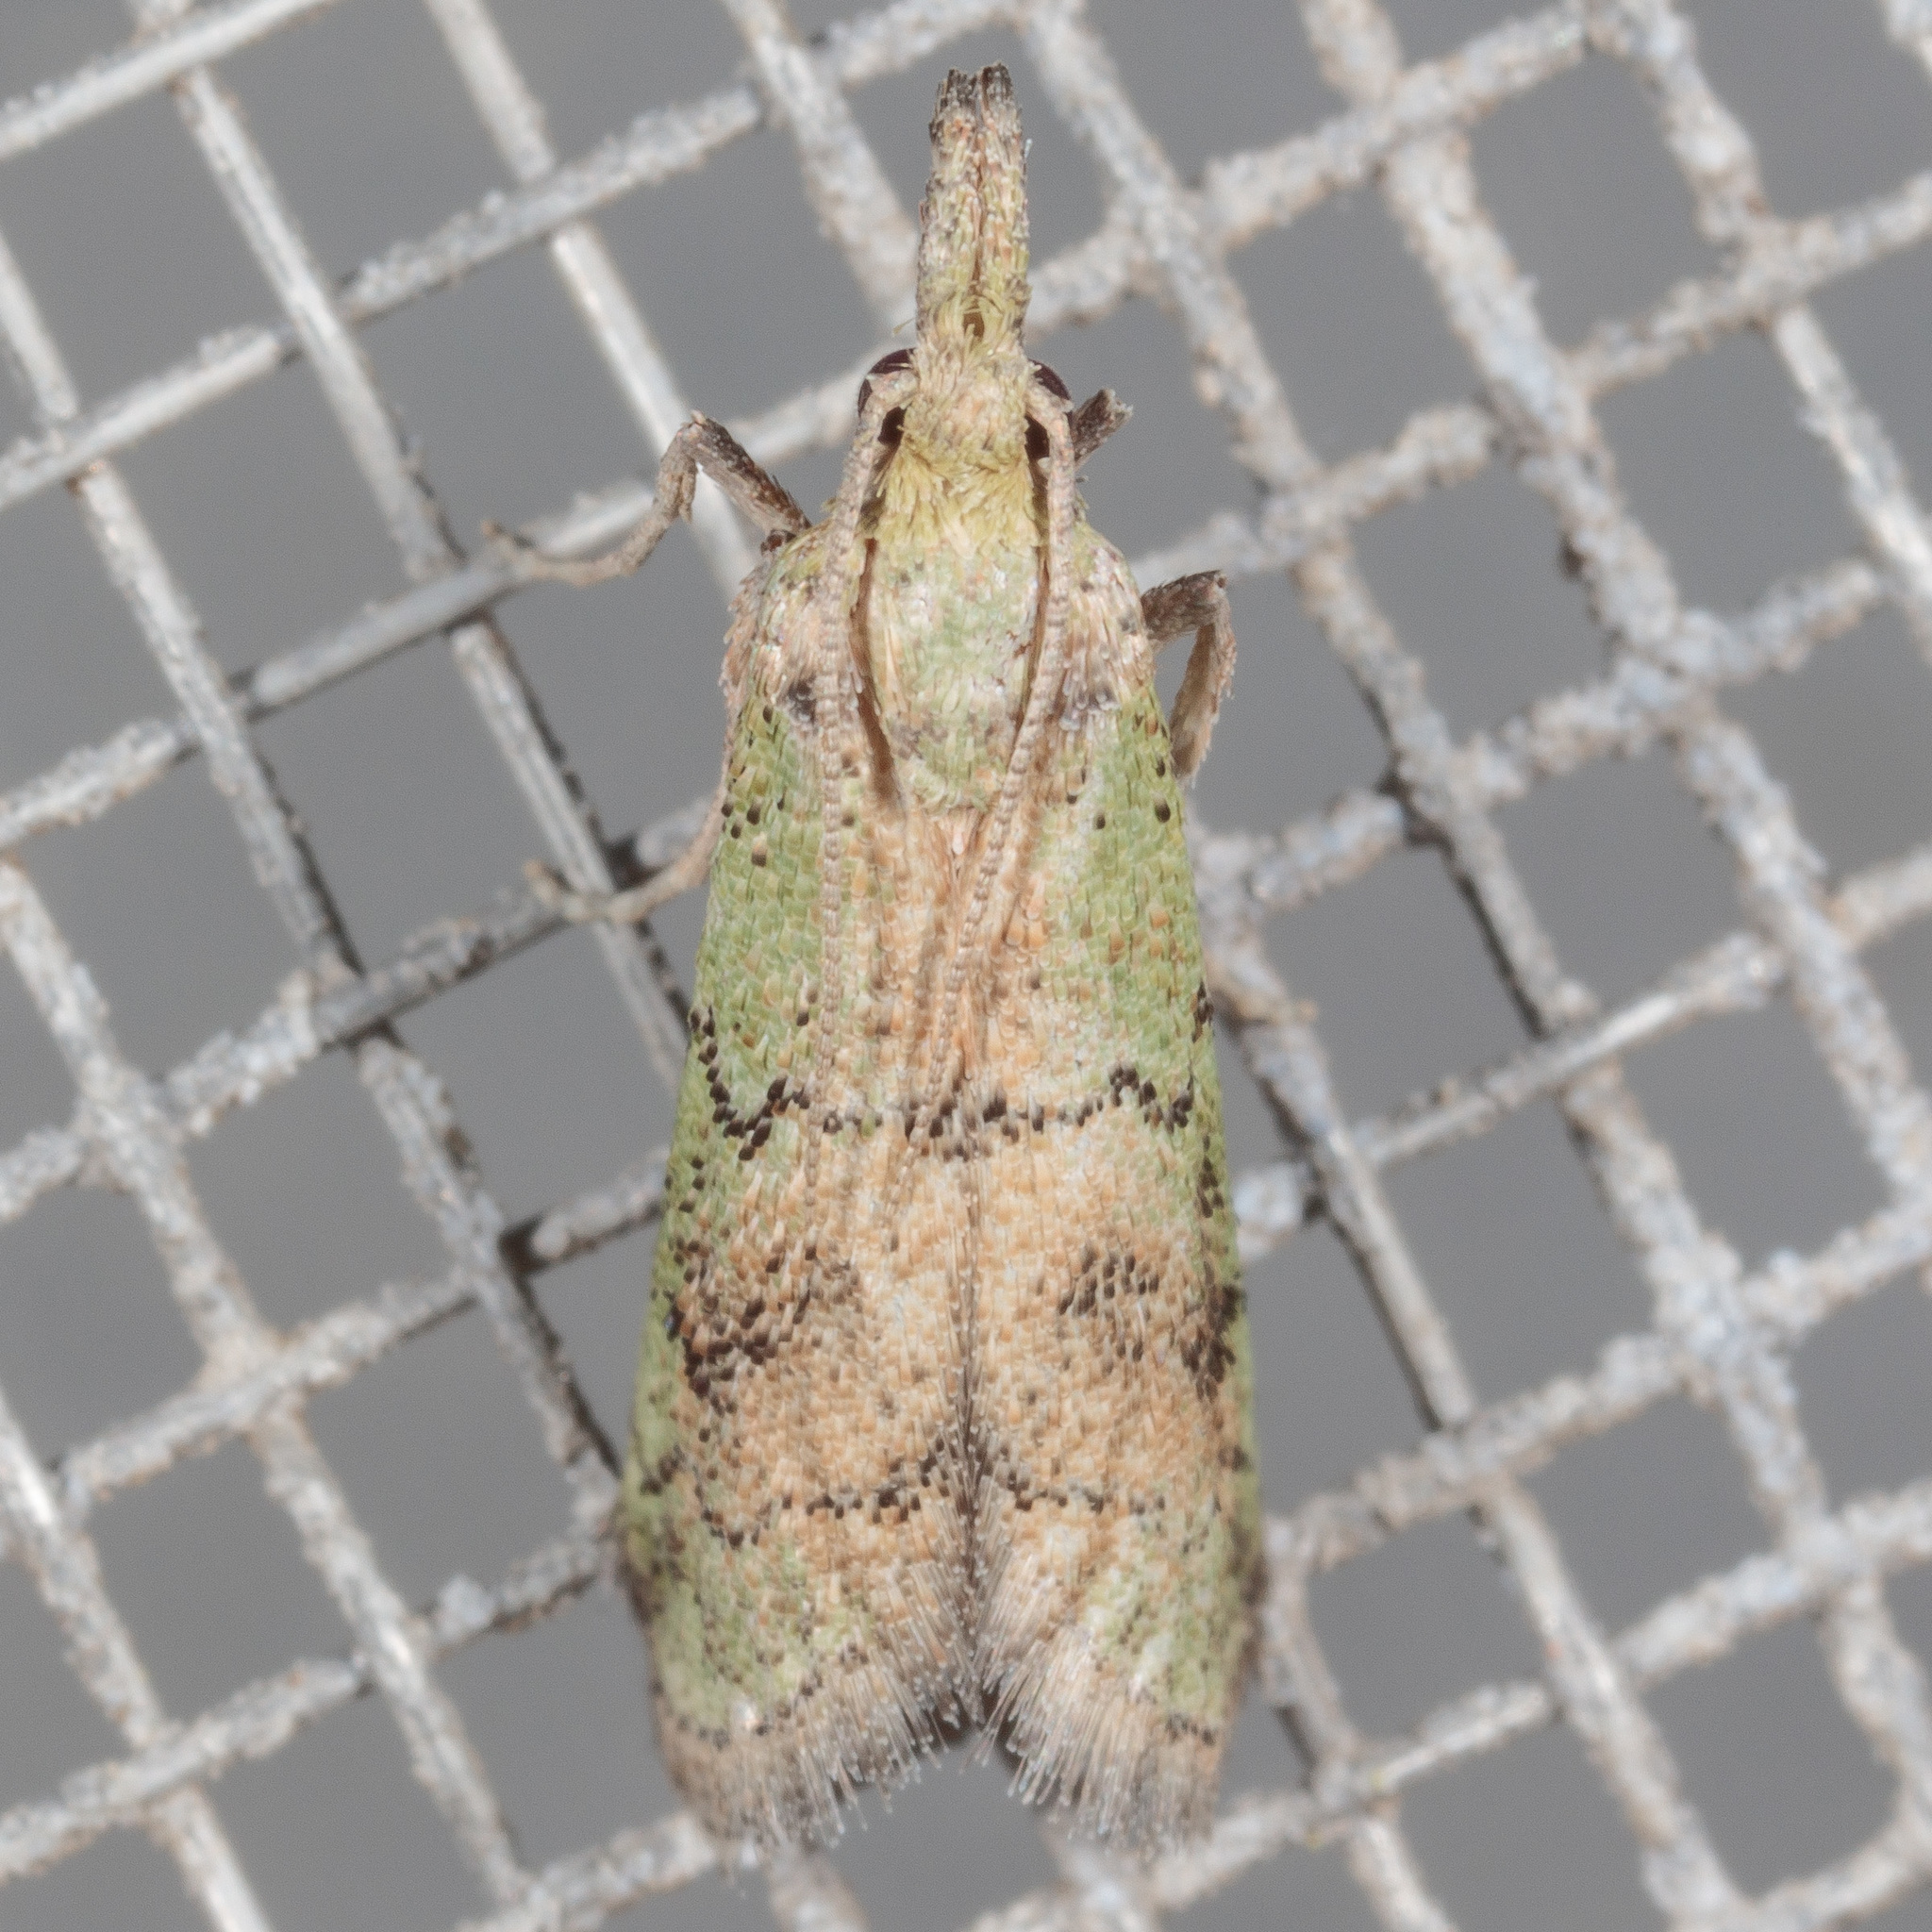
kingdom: Animalia
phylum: Arthropoda
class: Insecta
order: Lepidoptera
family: Pyralidae
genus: Cacotherapia
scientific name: Cacotherapia flexilinealis
